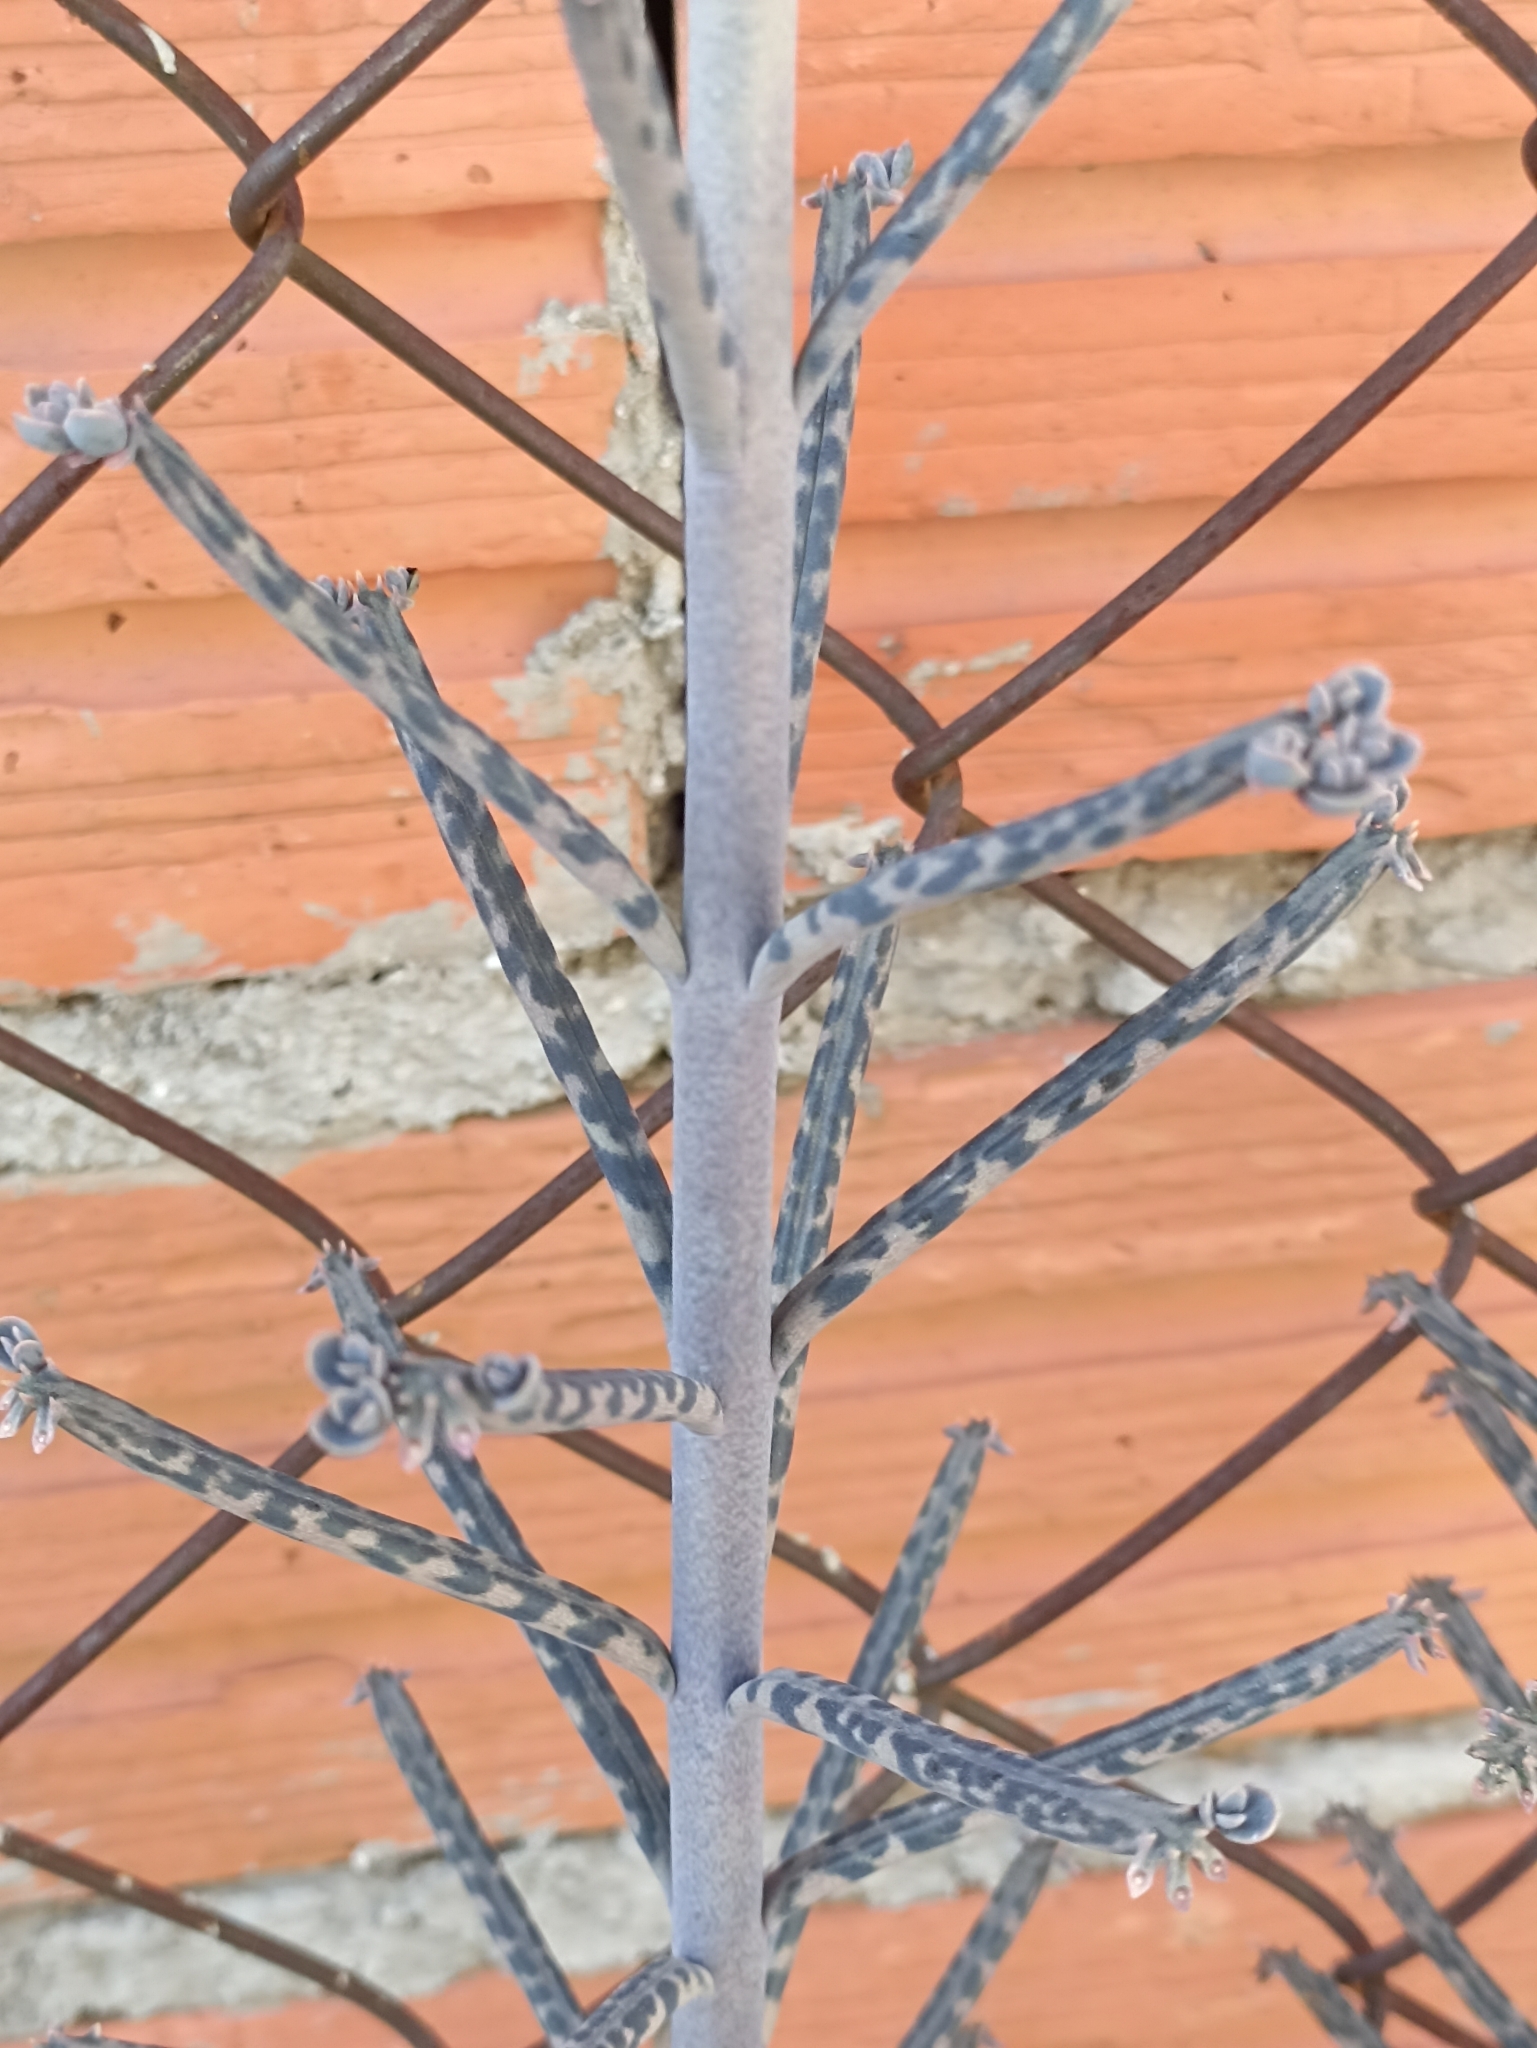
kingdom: Plantae
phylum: Tracheophyta
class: Magnoliopsida
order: Saxifragales
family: Crassulaceae
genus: Kalanchoe
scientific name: Kalanchoe delagoensis
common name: Chandelier plant
